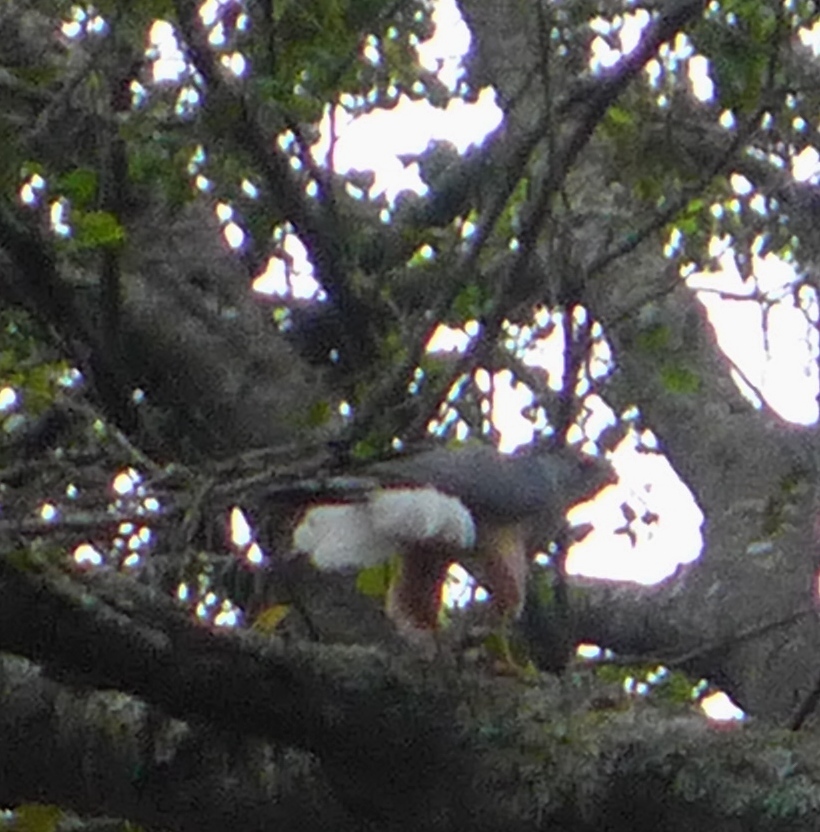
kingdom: Animalia
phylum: Chordata
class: Aves
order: Accipitriformes
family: Accipitridae
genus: Accipiter
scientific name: Accipiter cooperii
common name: Cooper's hawk
